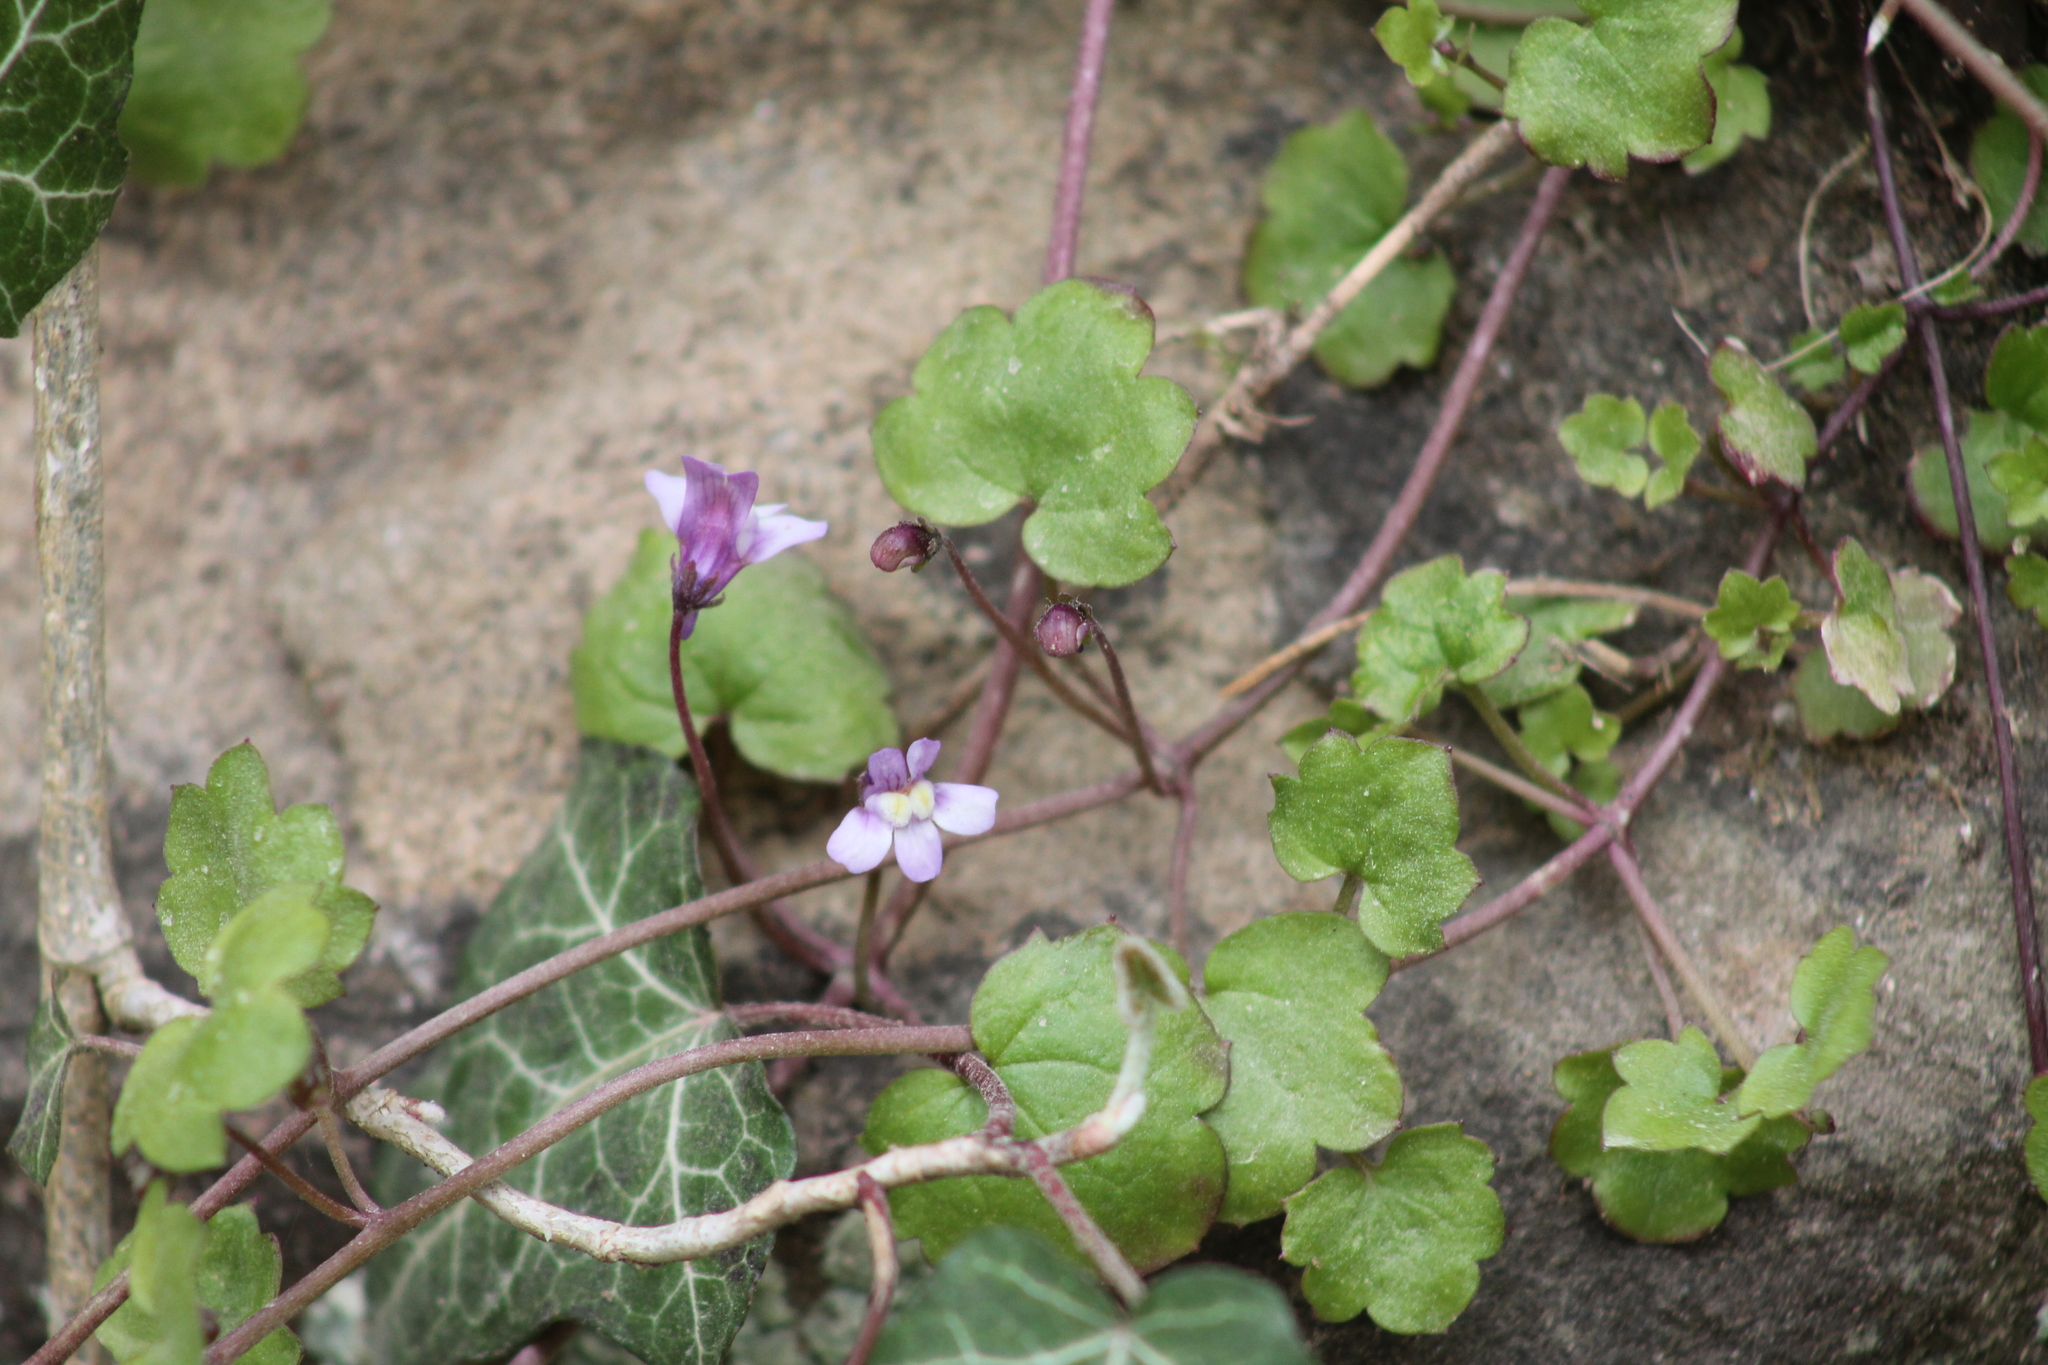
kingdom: Plantae
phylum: Tracheophyta
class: Magnoliopsida
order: Lamiales
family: Plantaginaceae
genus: Cymbalaria
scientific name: Cymbalaria muralis
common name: Ivy-leaved toadflax
